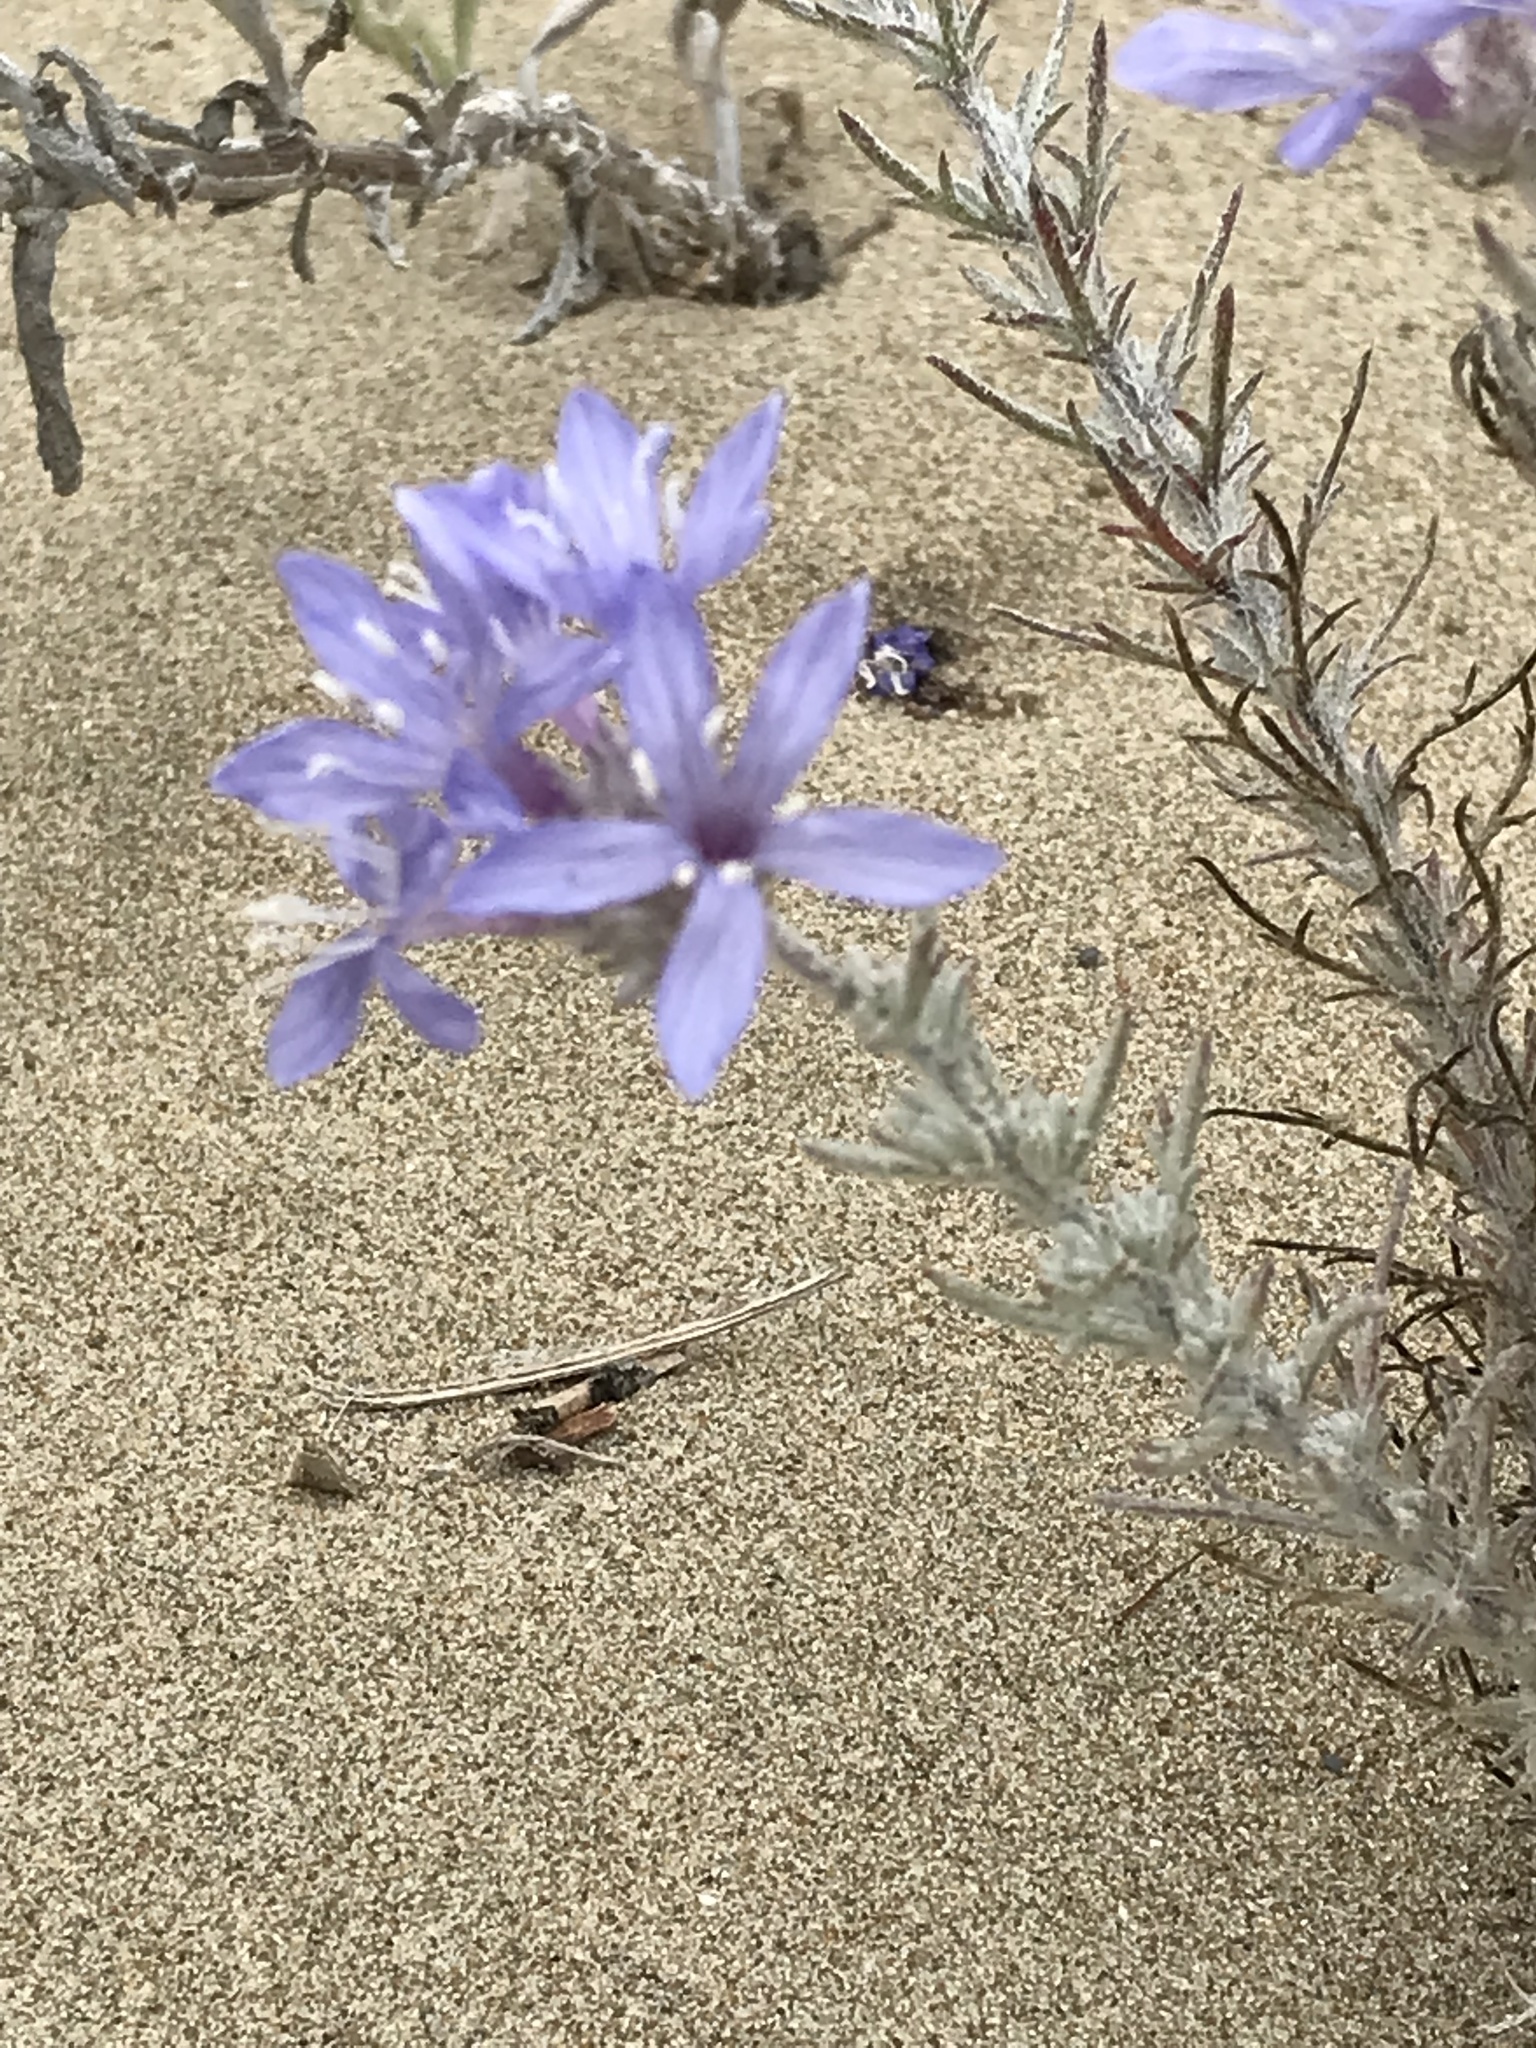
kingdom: Plantae
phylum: Tracheophyta
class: Magnoliopsida
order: Ericales
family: Polemoniaceae
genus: Eriastrum
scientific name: Eriastrum densifolium
